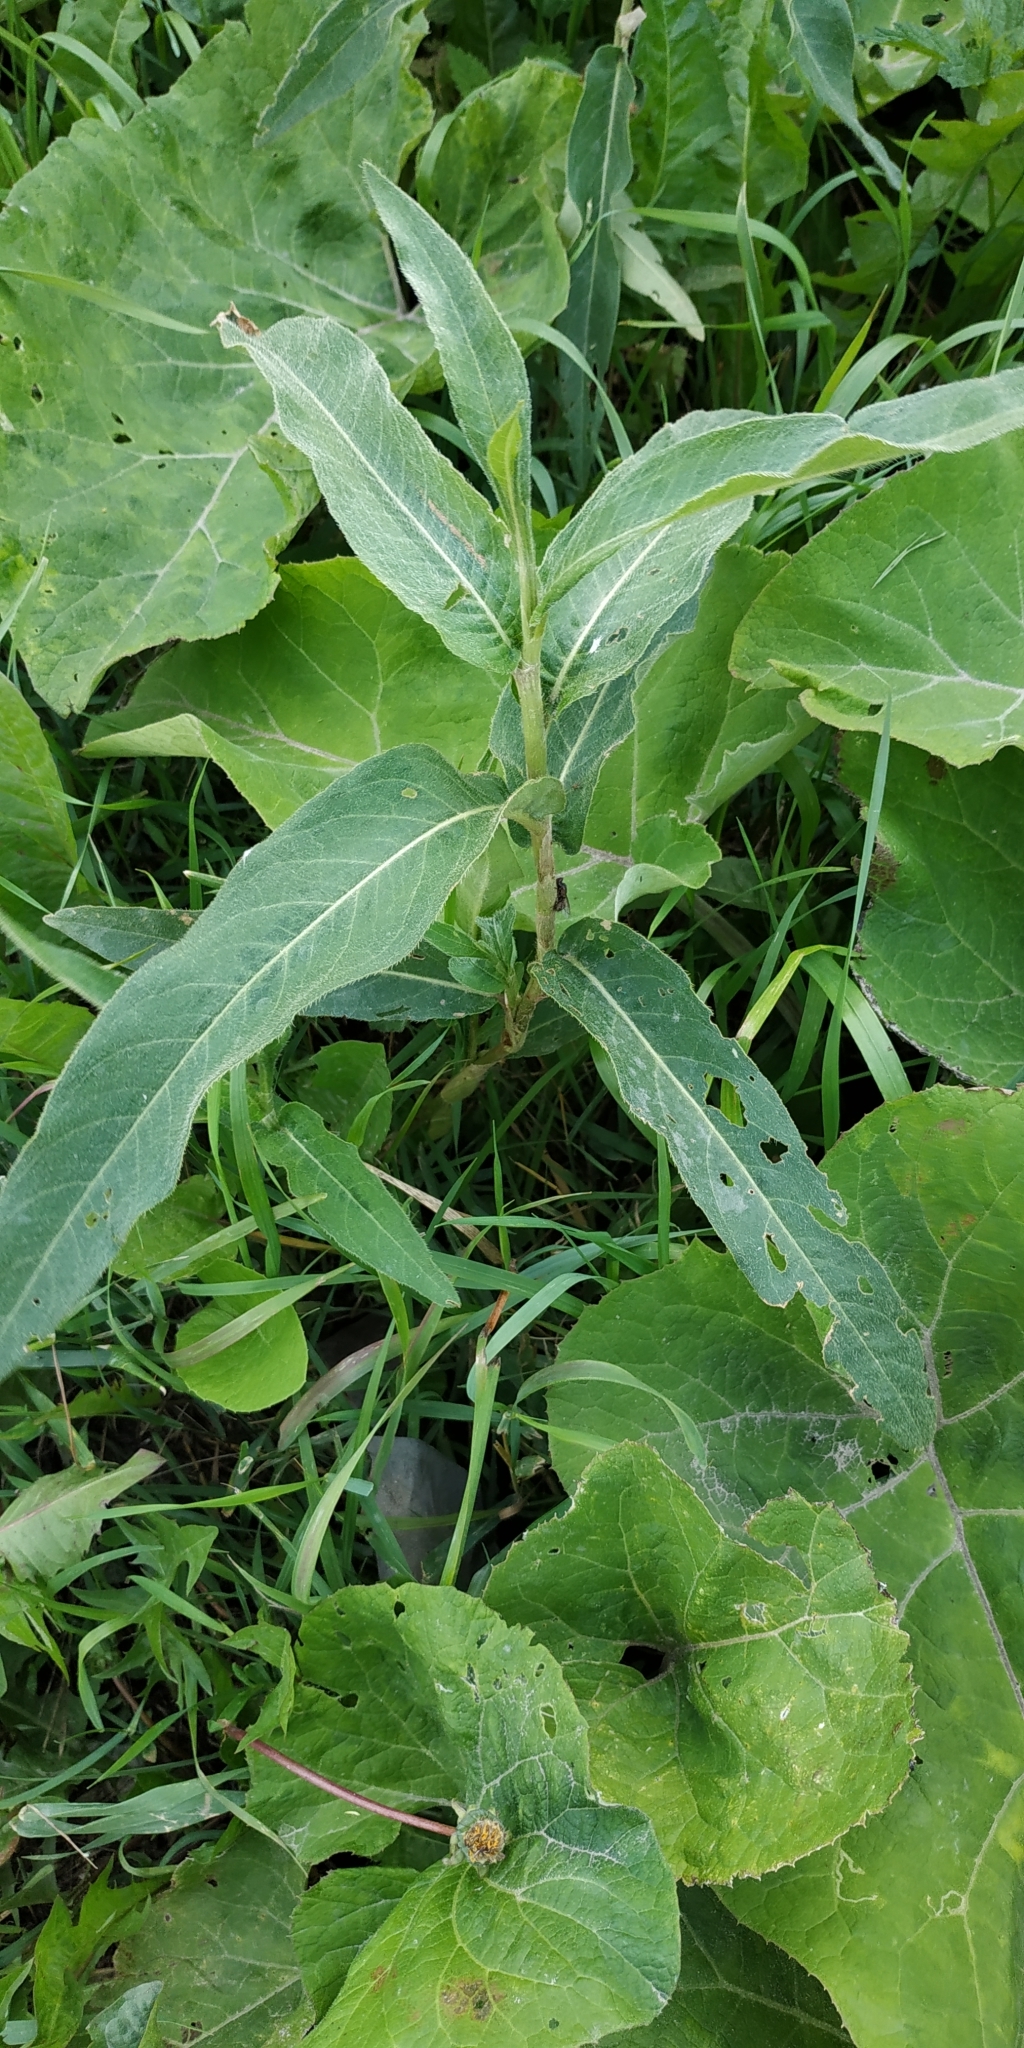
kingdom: Plantae
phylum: Tracheophyta
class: Magnoliopsida
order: Caryophyllales
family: Polygonaceae
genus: Persicaria
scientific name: Persicaria lapathifolia
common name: Curlytop knotweed
